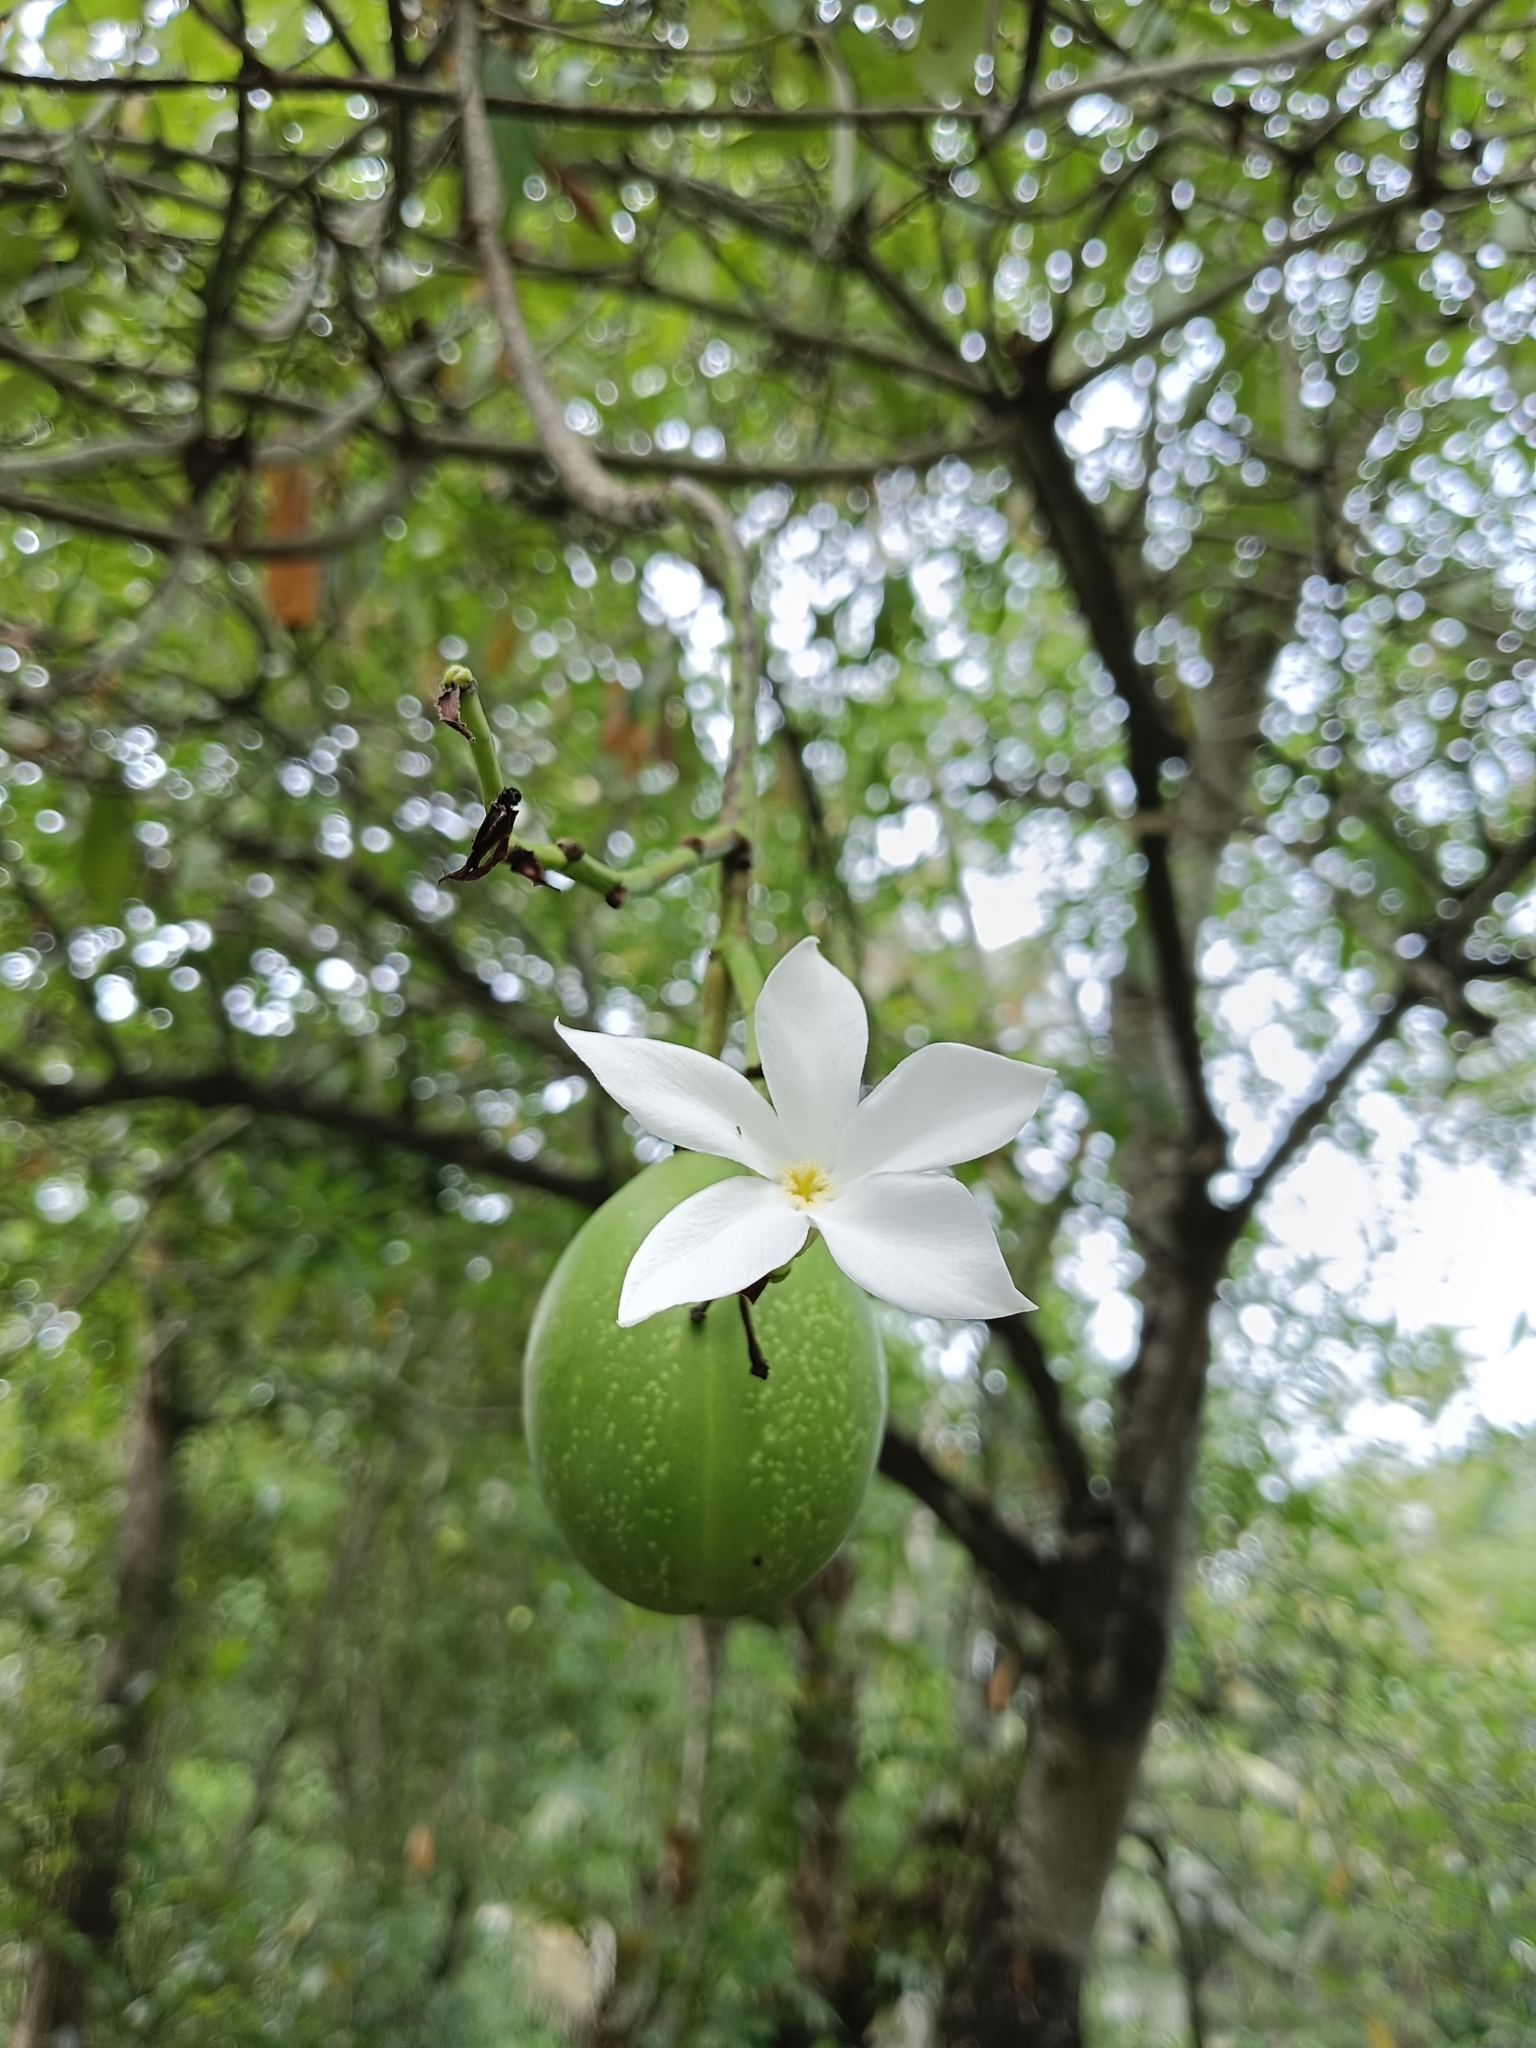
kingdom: Plantae
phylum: Tracheophyta
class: Magnoliopsida
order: Gentianales
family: Apocynaceae
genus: Cerbera
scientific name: Cerbera odollam
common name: Pong-pong
